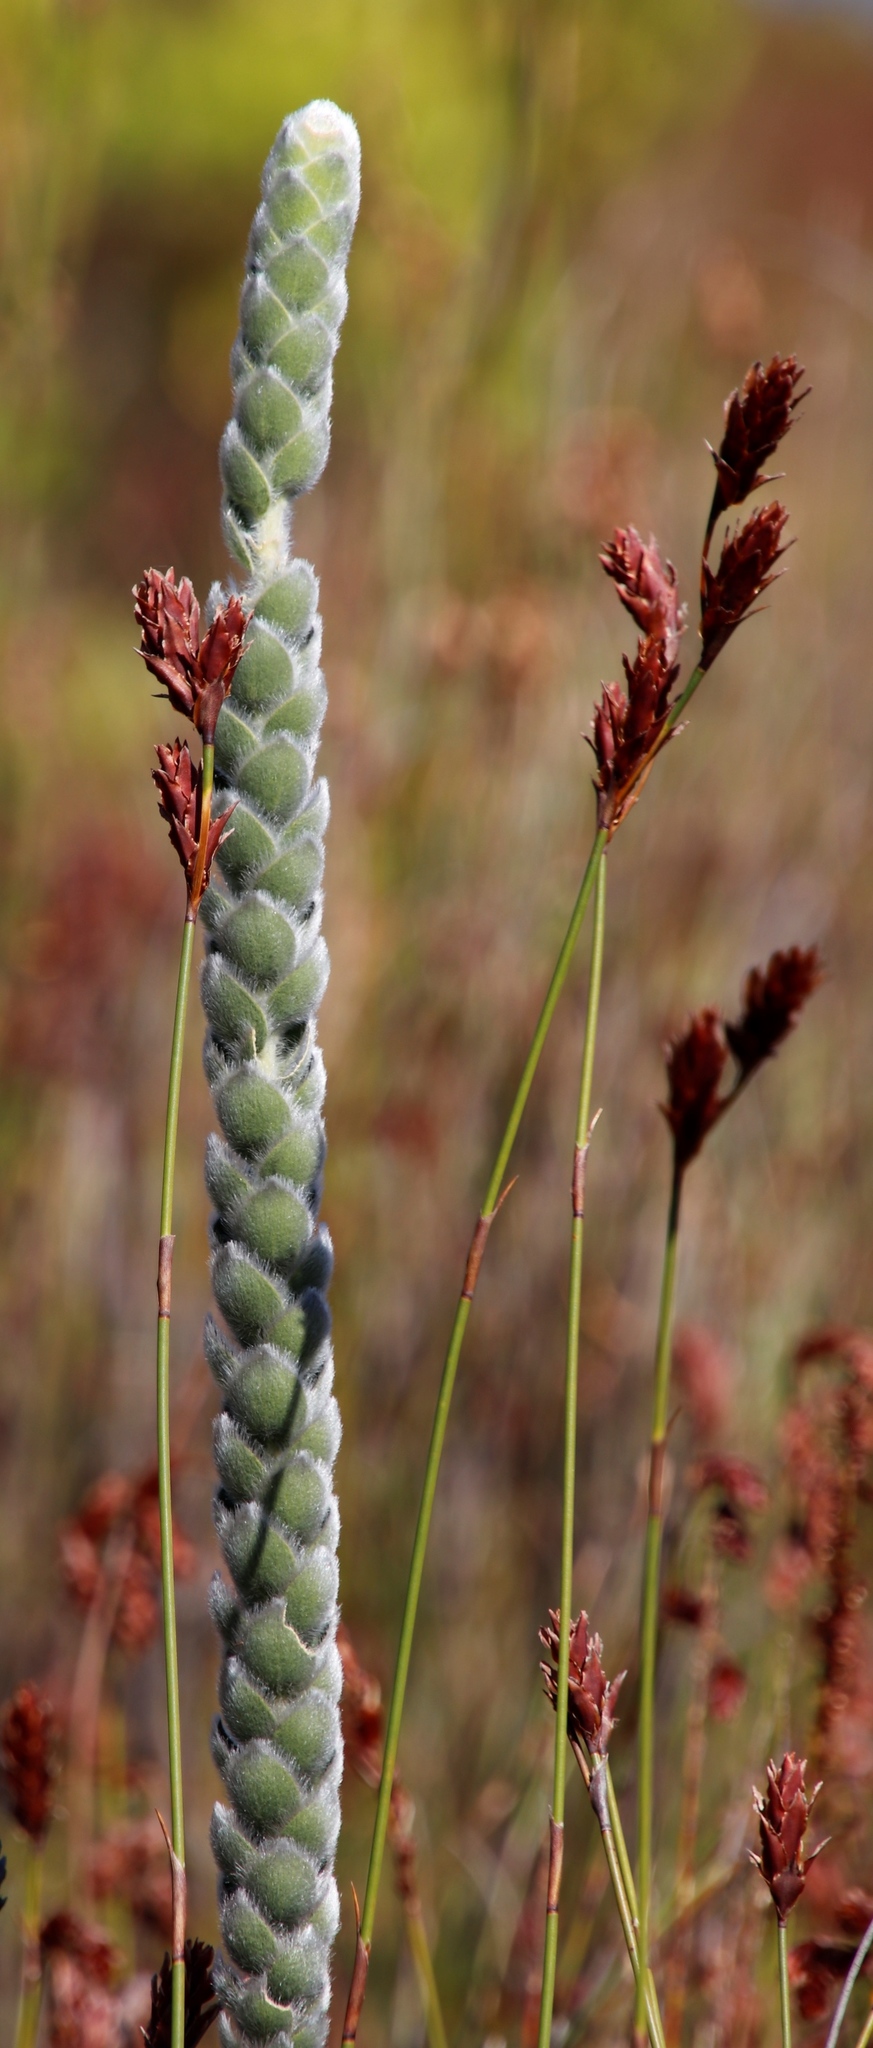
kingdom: Plantae
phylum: Tracheophyta
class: Magnoliopsida
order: Fabales
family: Fabaceae
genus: Liparia
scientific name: Liparia calycina
